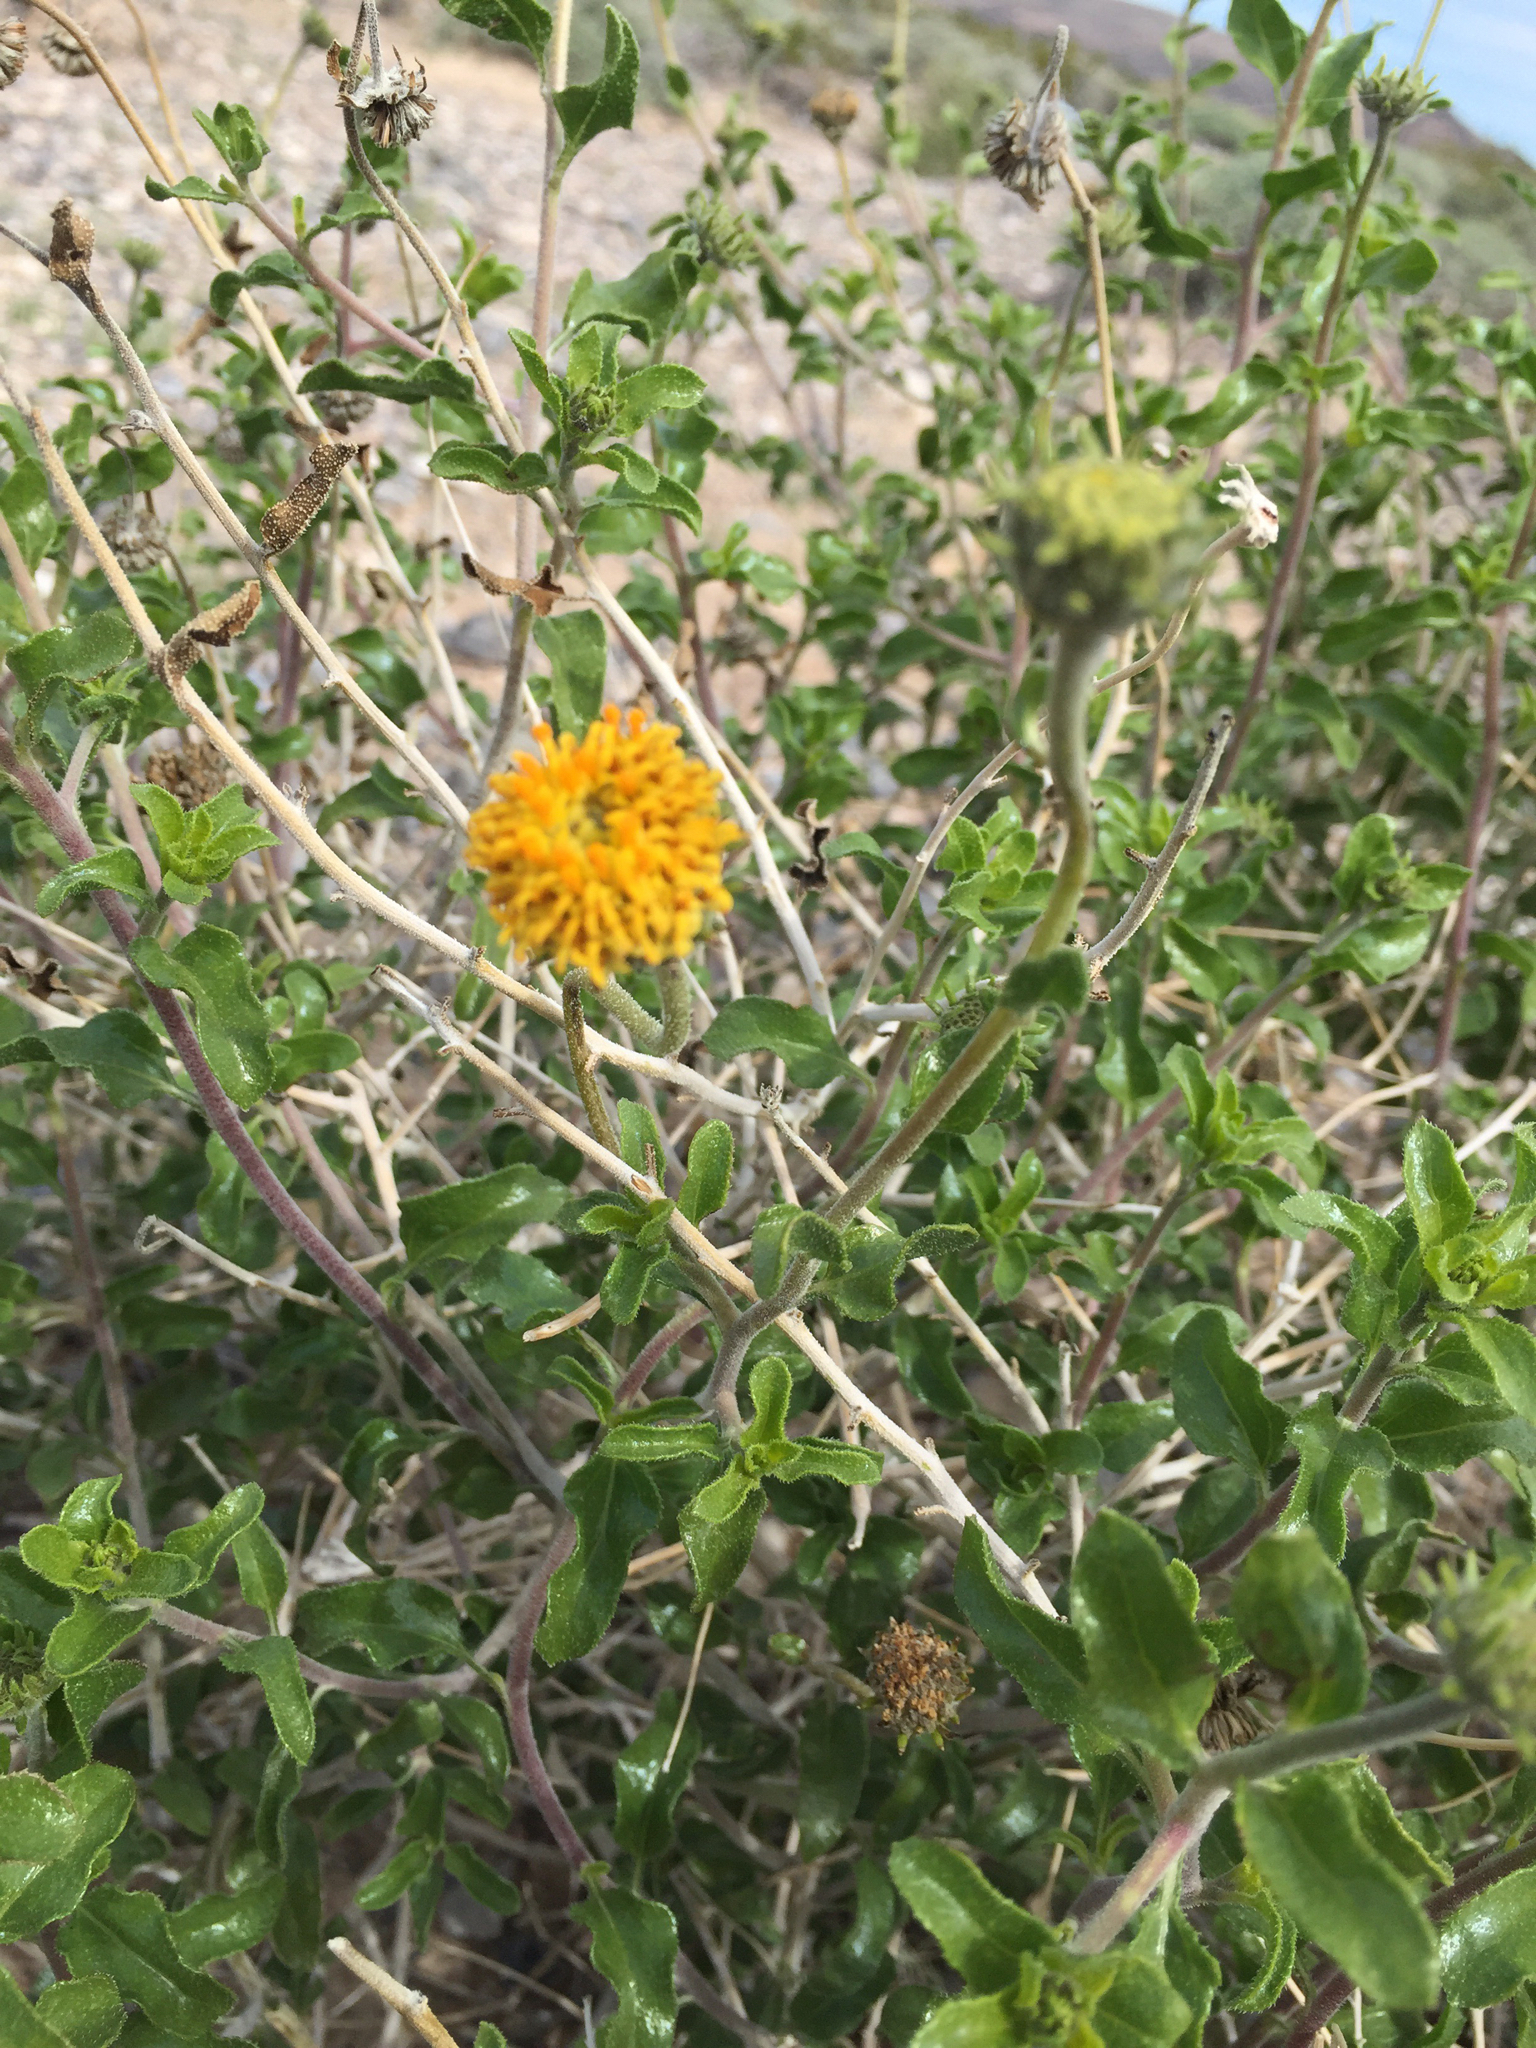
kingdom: Plantae
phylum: Tracheophyta
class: Magnoliopsida
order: Asterales
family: Asteraceae
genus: Encelia
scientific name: Encelia frutescens
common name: Bush encelia
